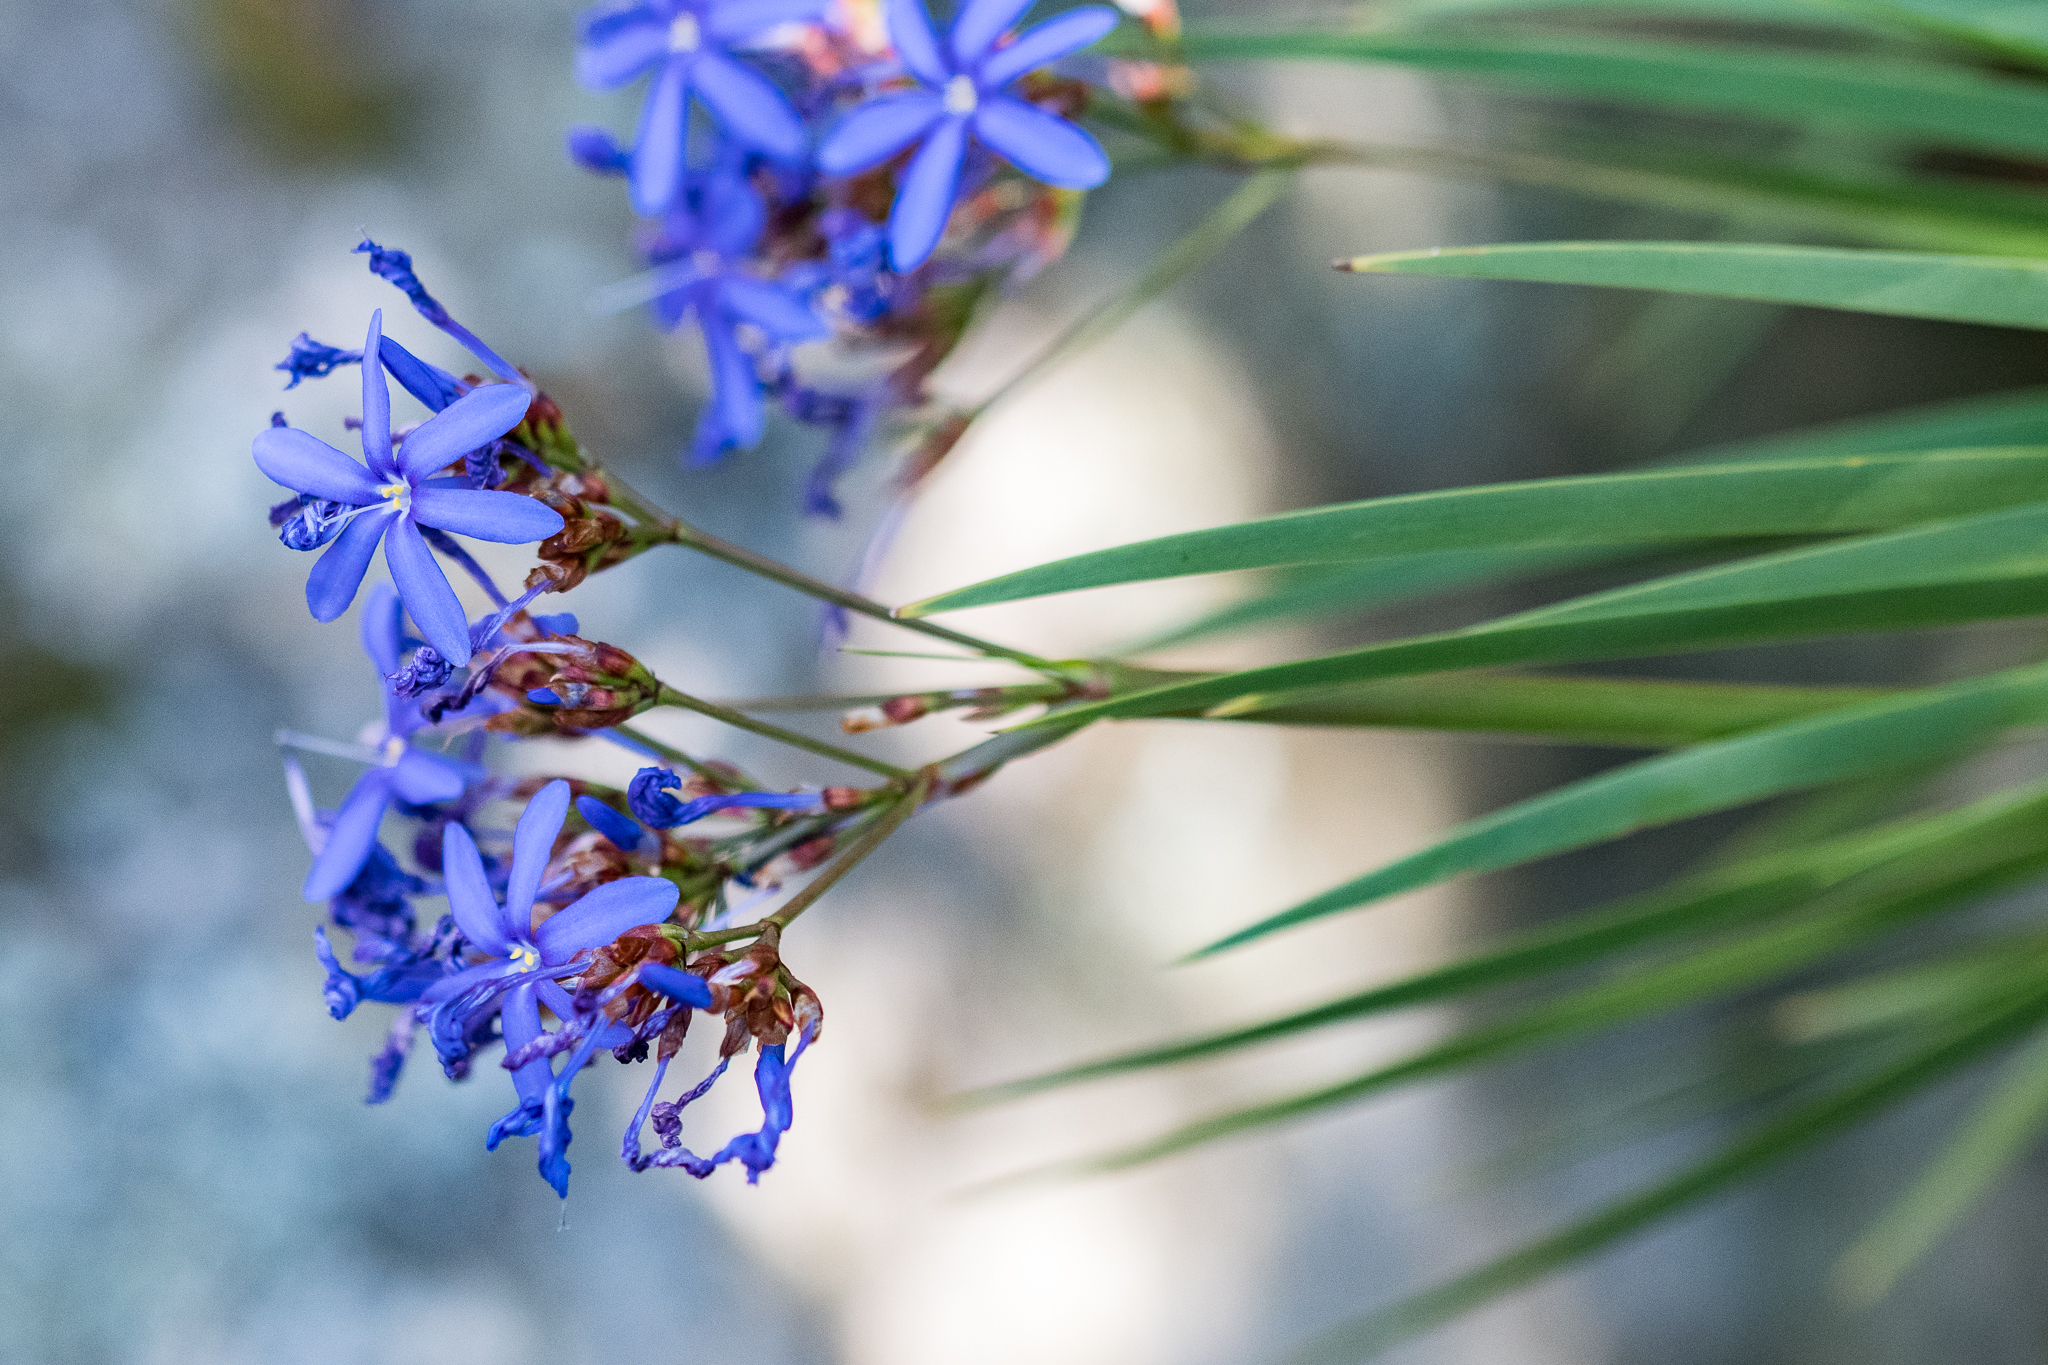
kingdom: Plantae
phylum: Tracheophyta
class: Liliopsida
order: Asparagales
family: Iridaceae
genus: Nivenia
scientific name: Nivenia corymbosa
